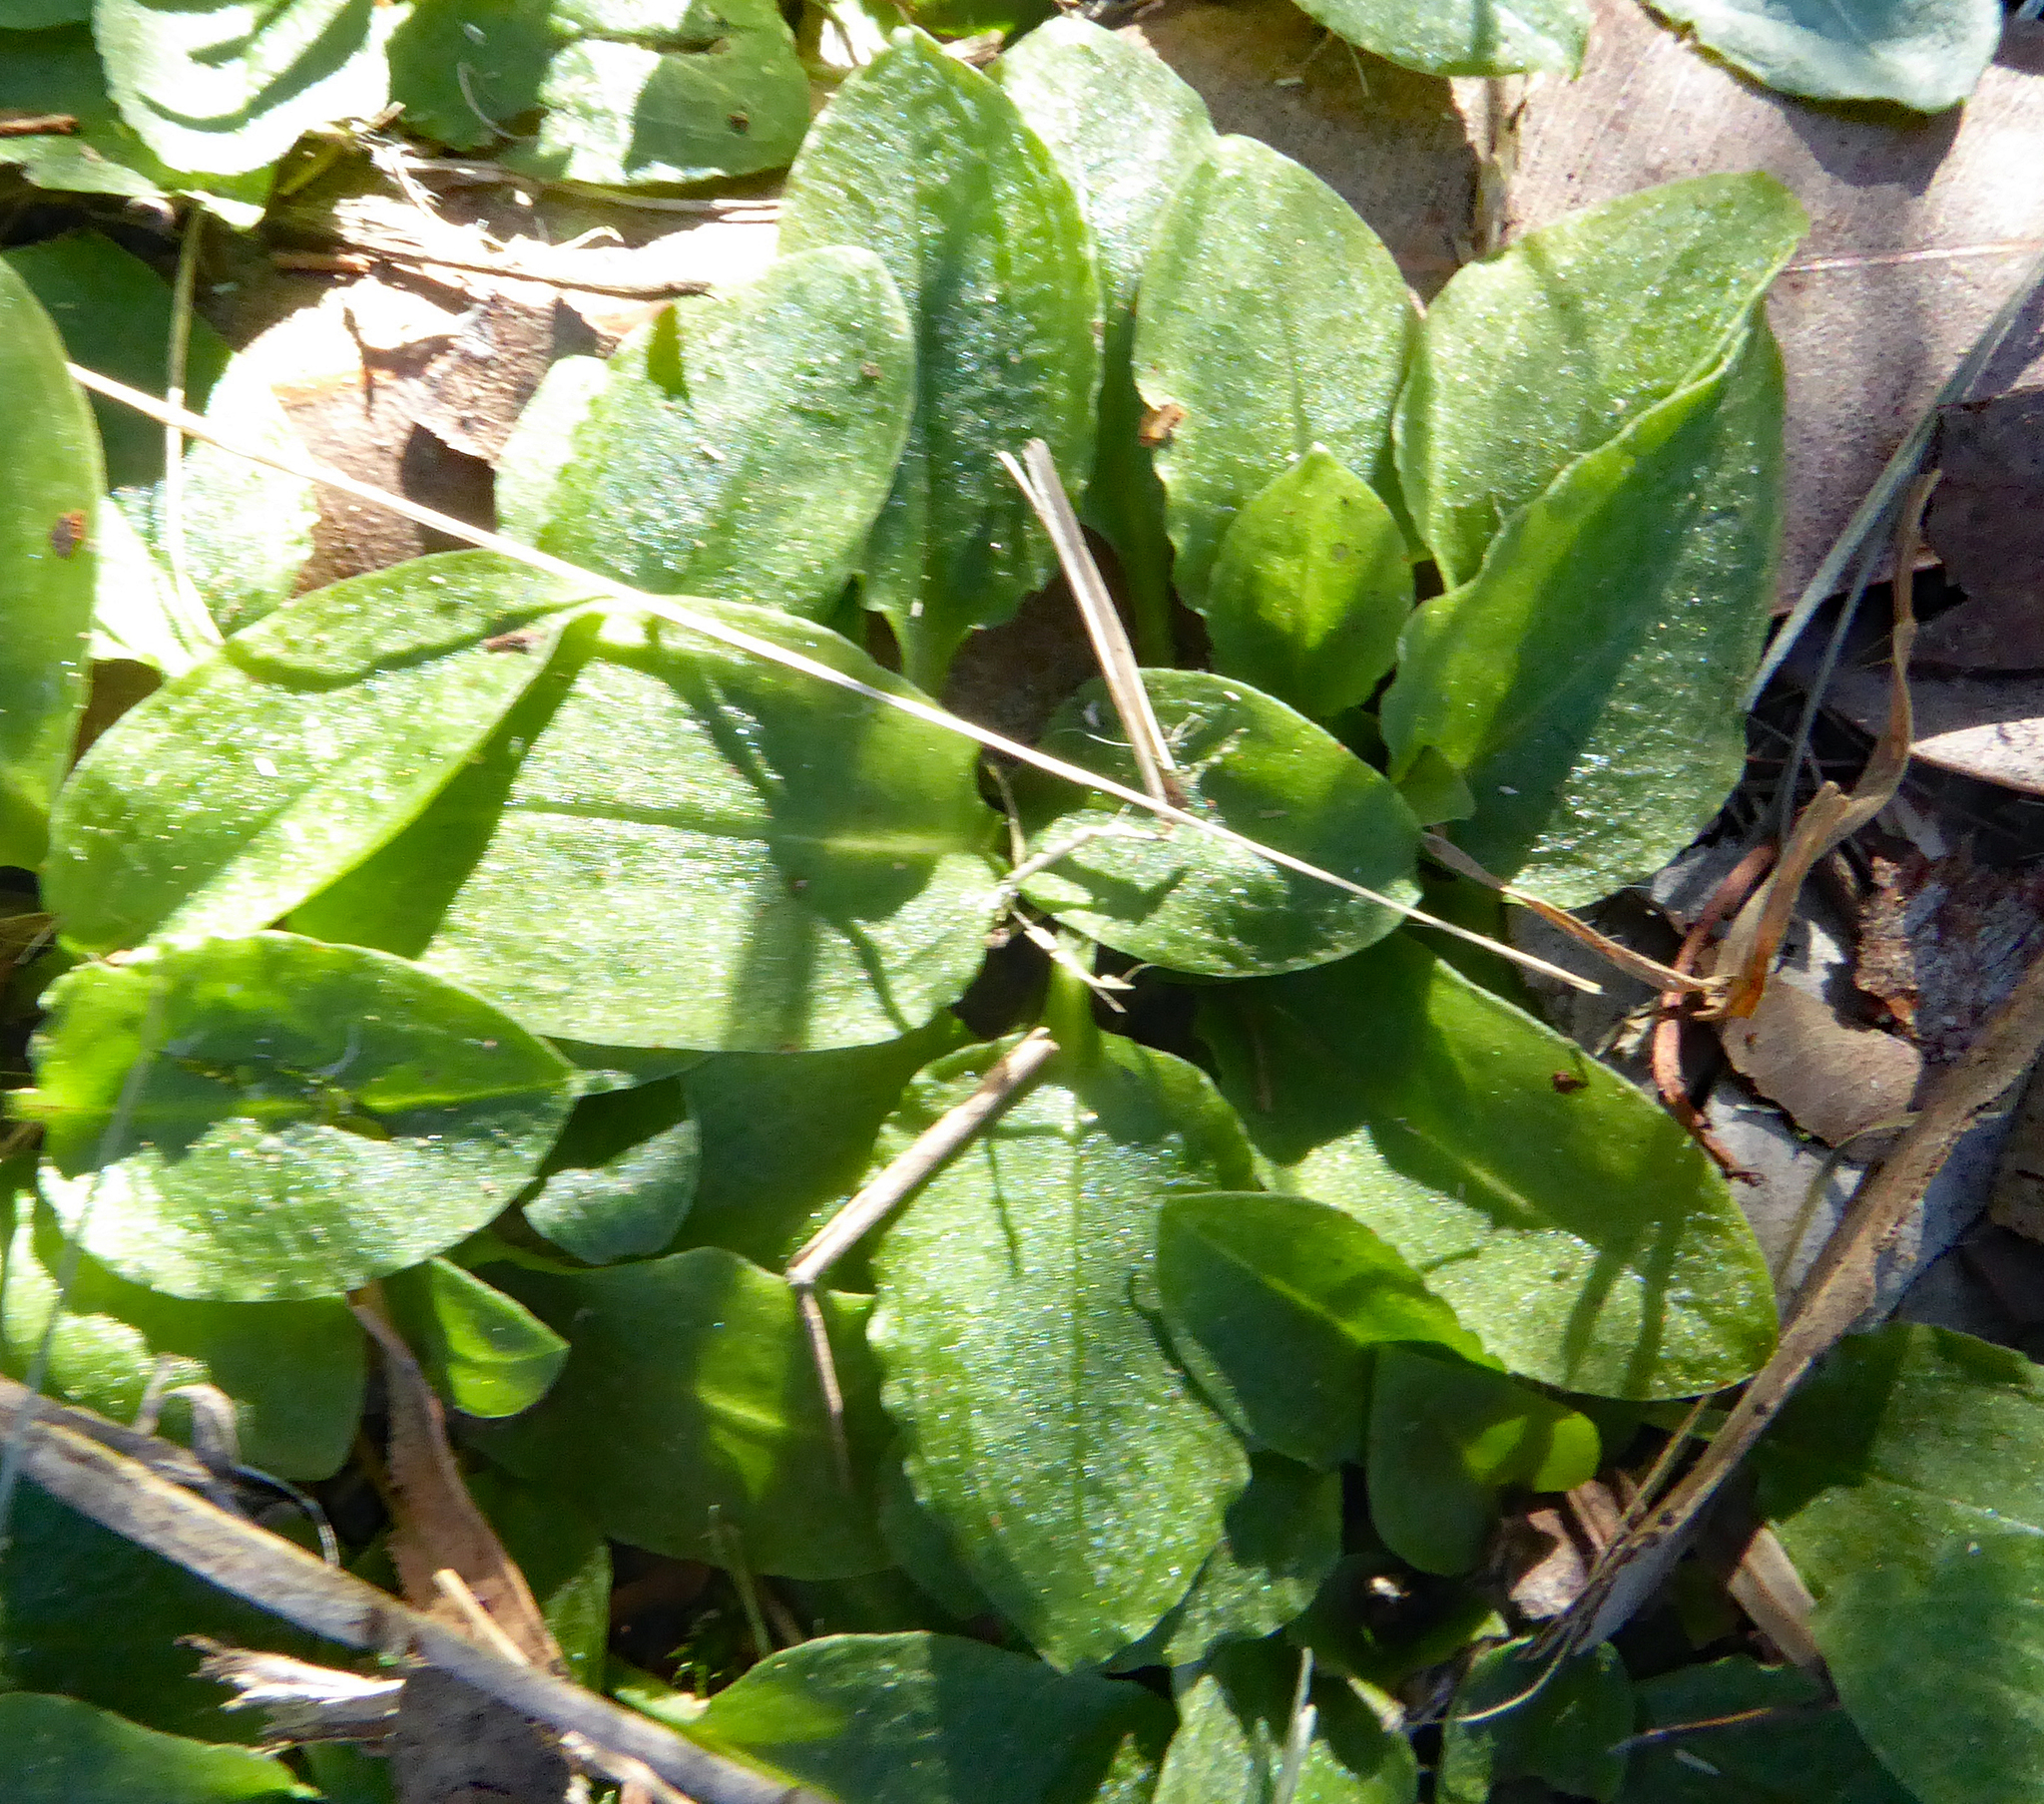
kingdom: Plantae
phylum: Tracheophyta
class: Liliopsida
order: Asparagales
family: Orchidaceae
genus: Pterostylis
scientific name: Pterostylis nutans
